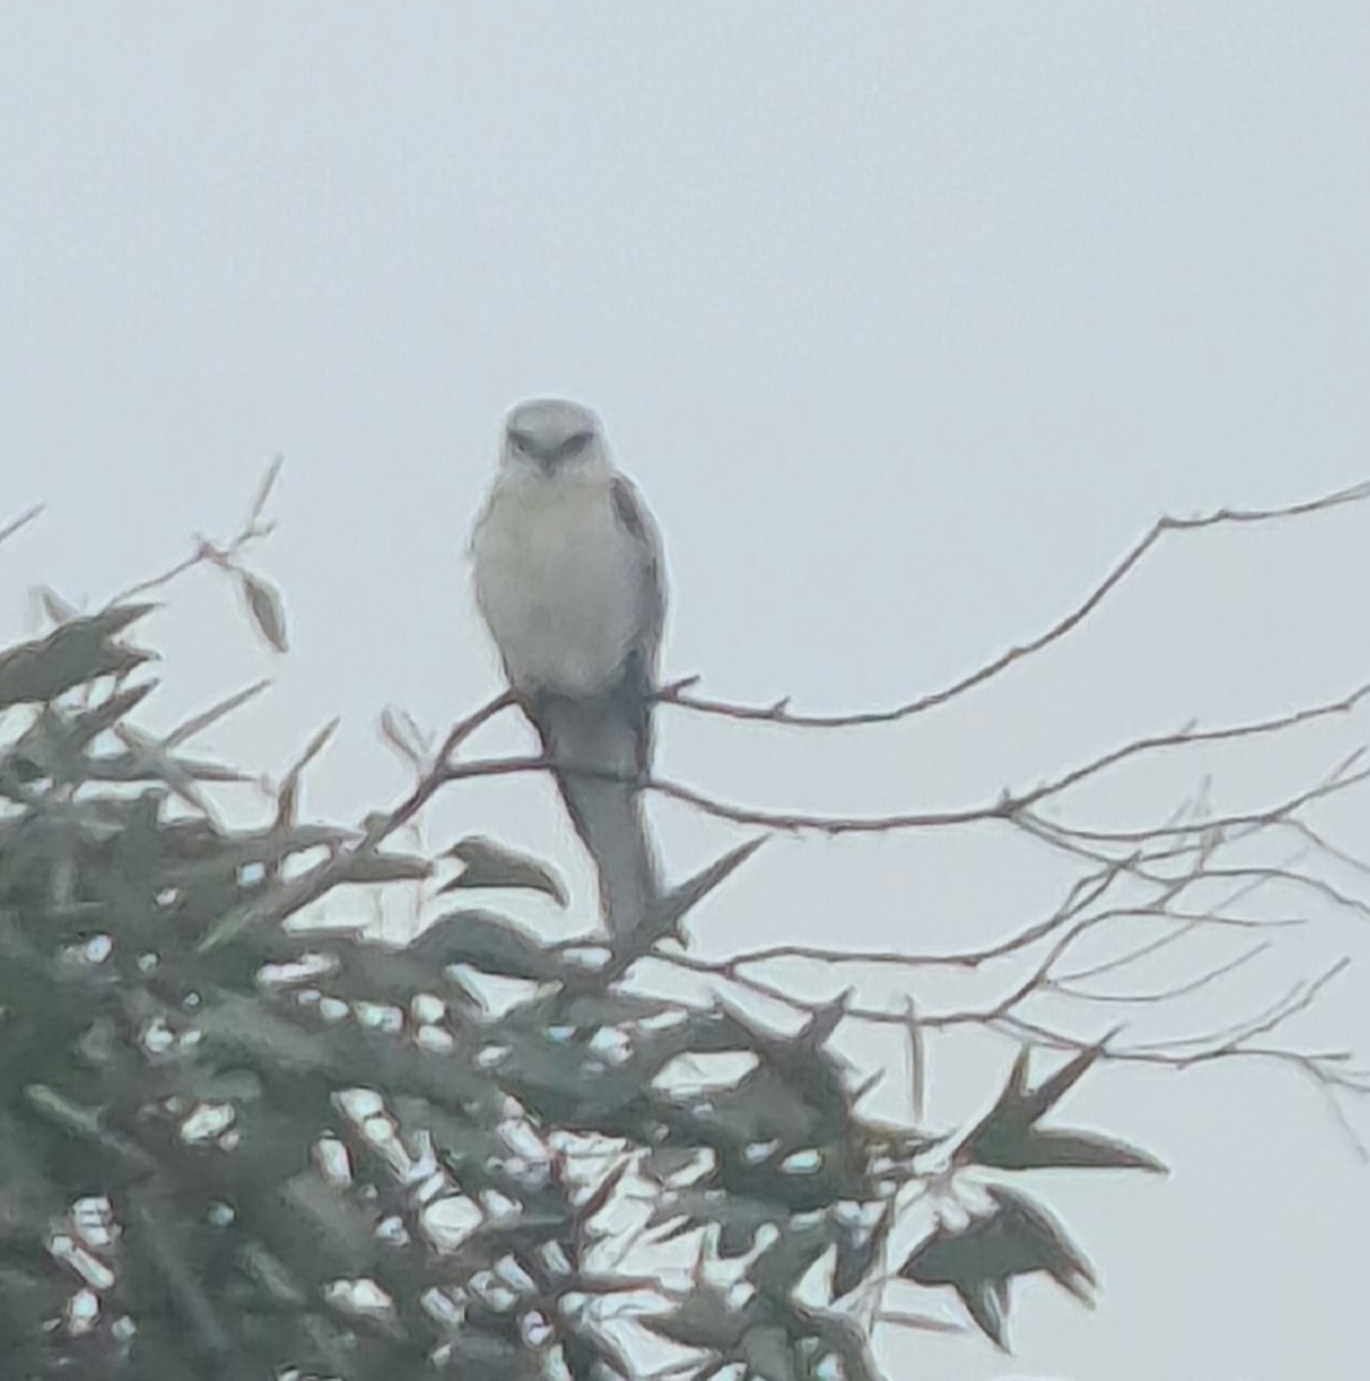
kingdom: Animalia
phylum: Chordata
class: Aves
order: Accipitriformes
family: Accipitridae
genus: Elanus
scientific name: Elanus axillaris
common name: Black-shouldered kite
